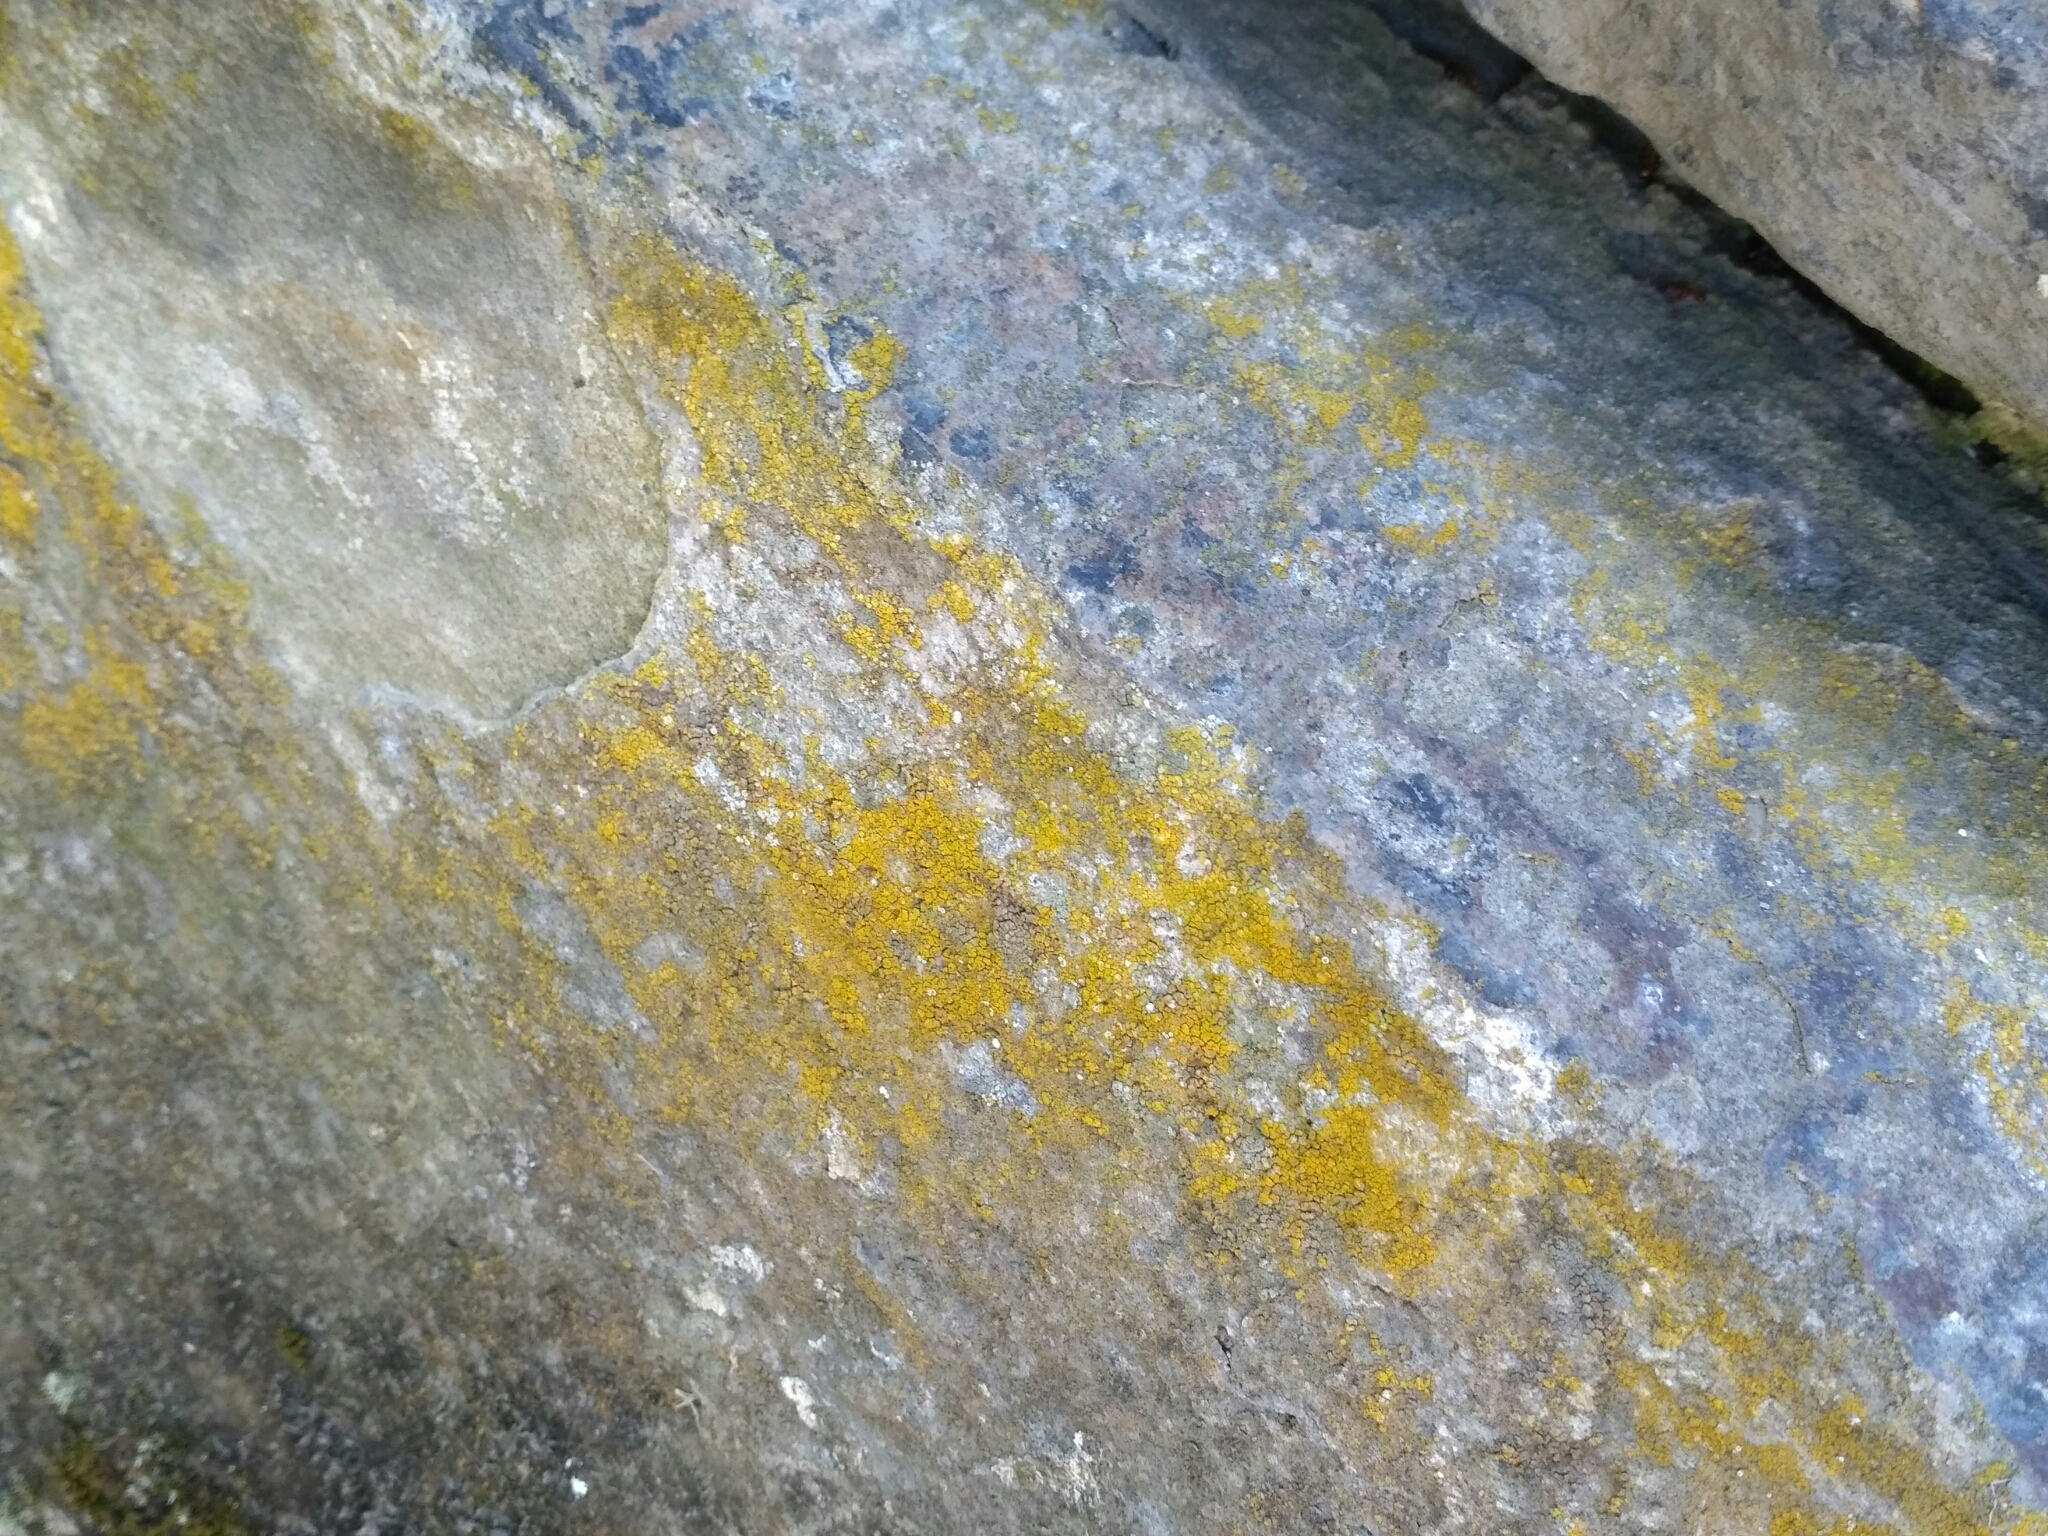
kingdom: Fungi
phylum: Ascomycota
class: Lecanoromycetes
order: Teloschistales
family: Teloschistaceae
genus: Flavoplaca
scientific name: Flavoplaca austrocitrina
